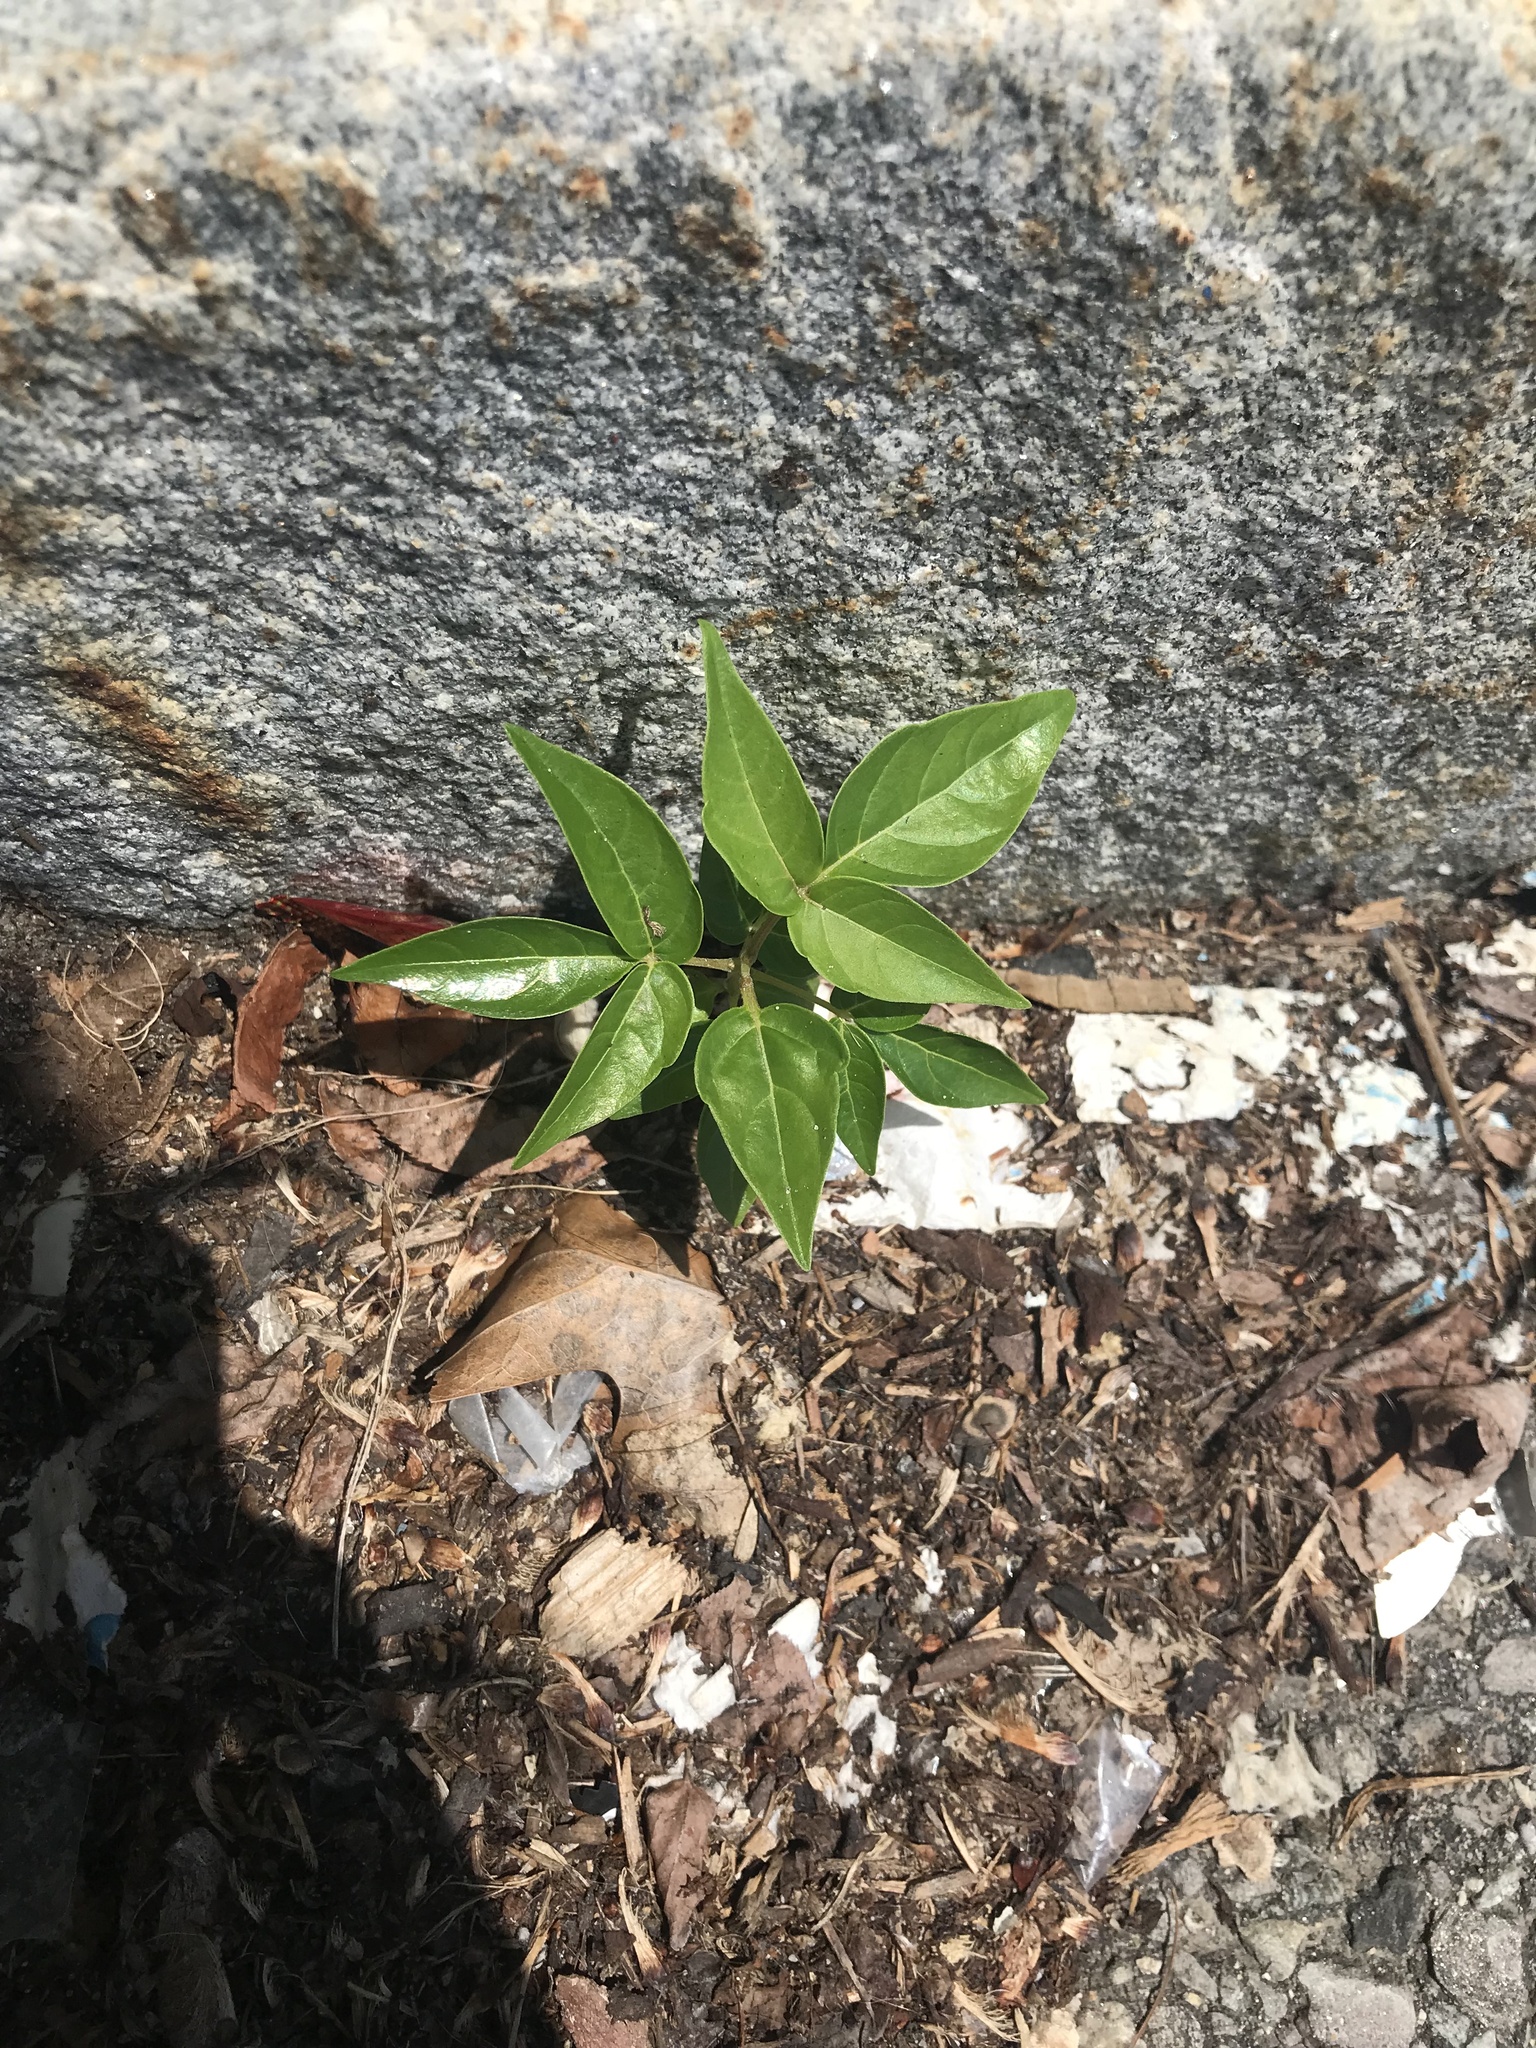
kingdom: Plantae
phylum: Tracheophyta
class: Magnoliopsida
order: Sapindales
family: Simaroubaceae
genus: Ailanthus
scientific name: Ailanthus altissima
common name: Tree-of-heaven
